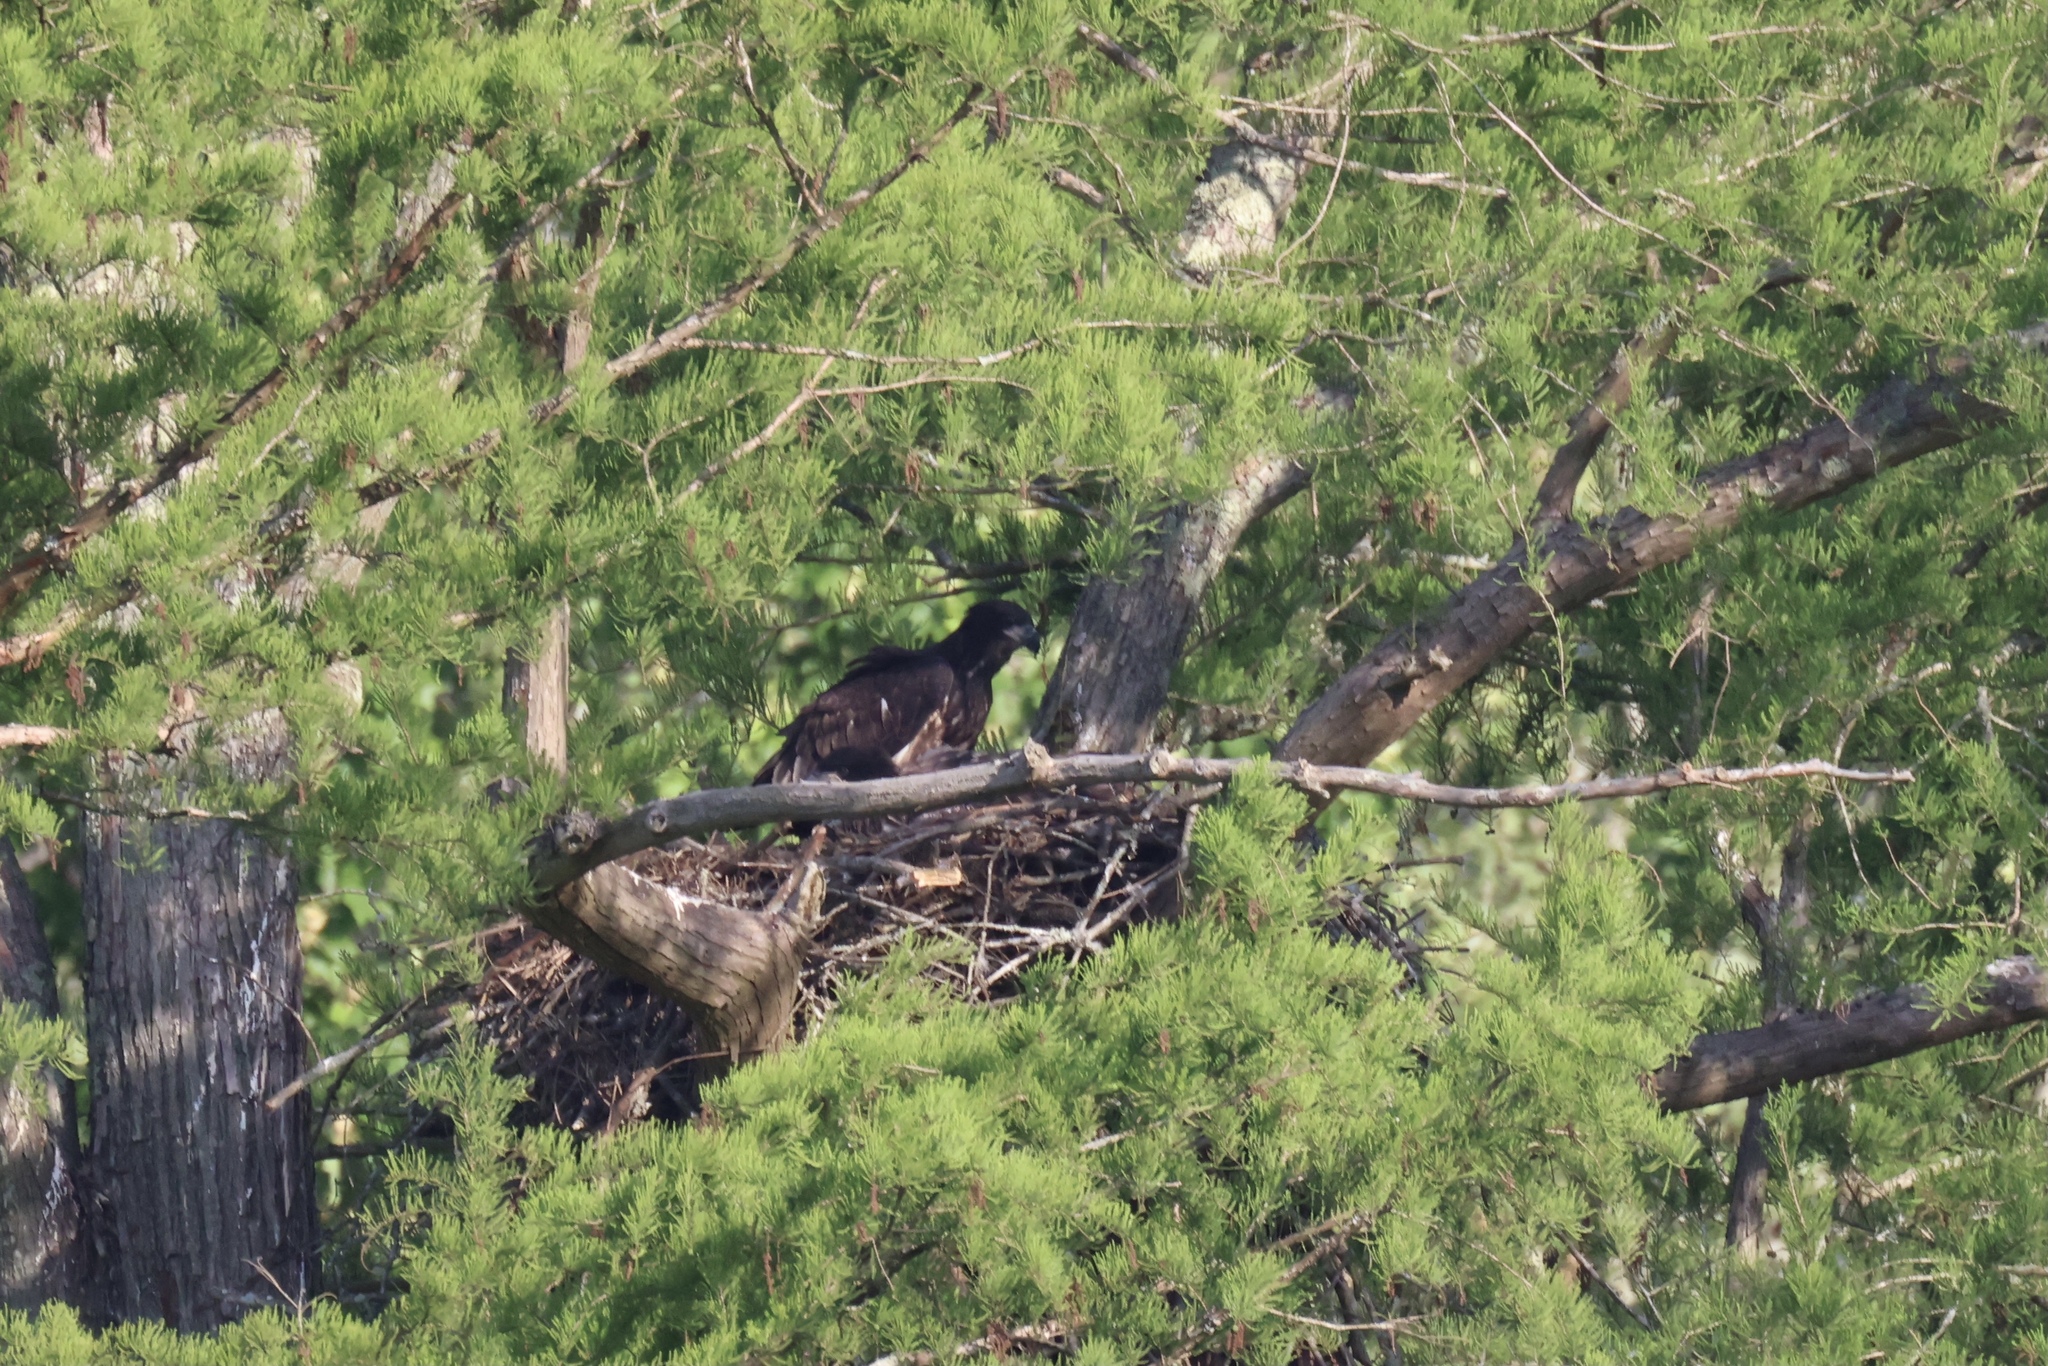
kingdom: Animalia
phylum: Chordata
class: Aves
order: Accipitriformes
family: Accipitridae
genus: Haliaeetus
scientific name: Haliaeetus leucocephalus
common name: Bald eagle
